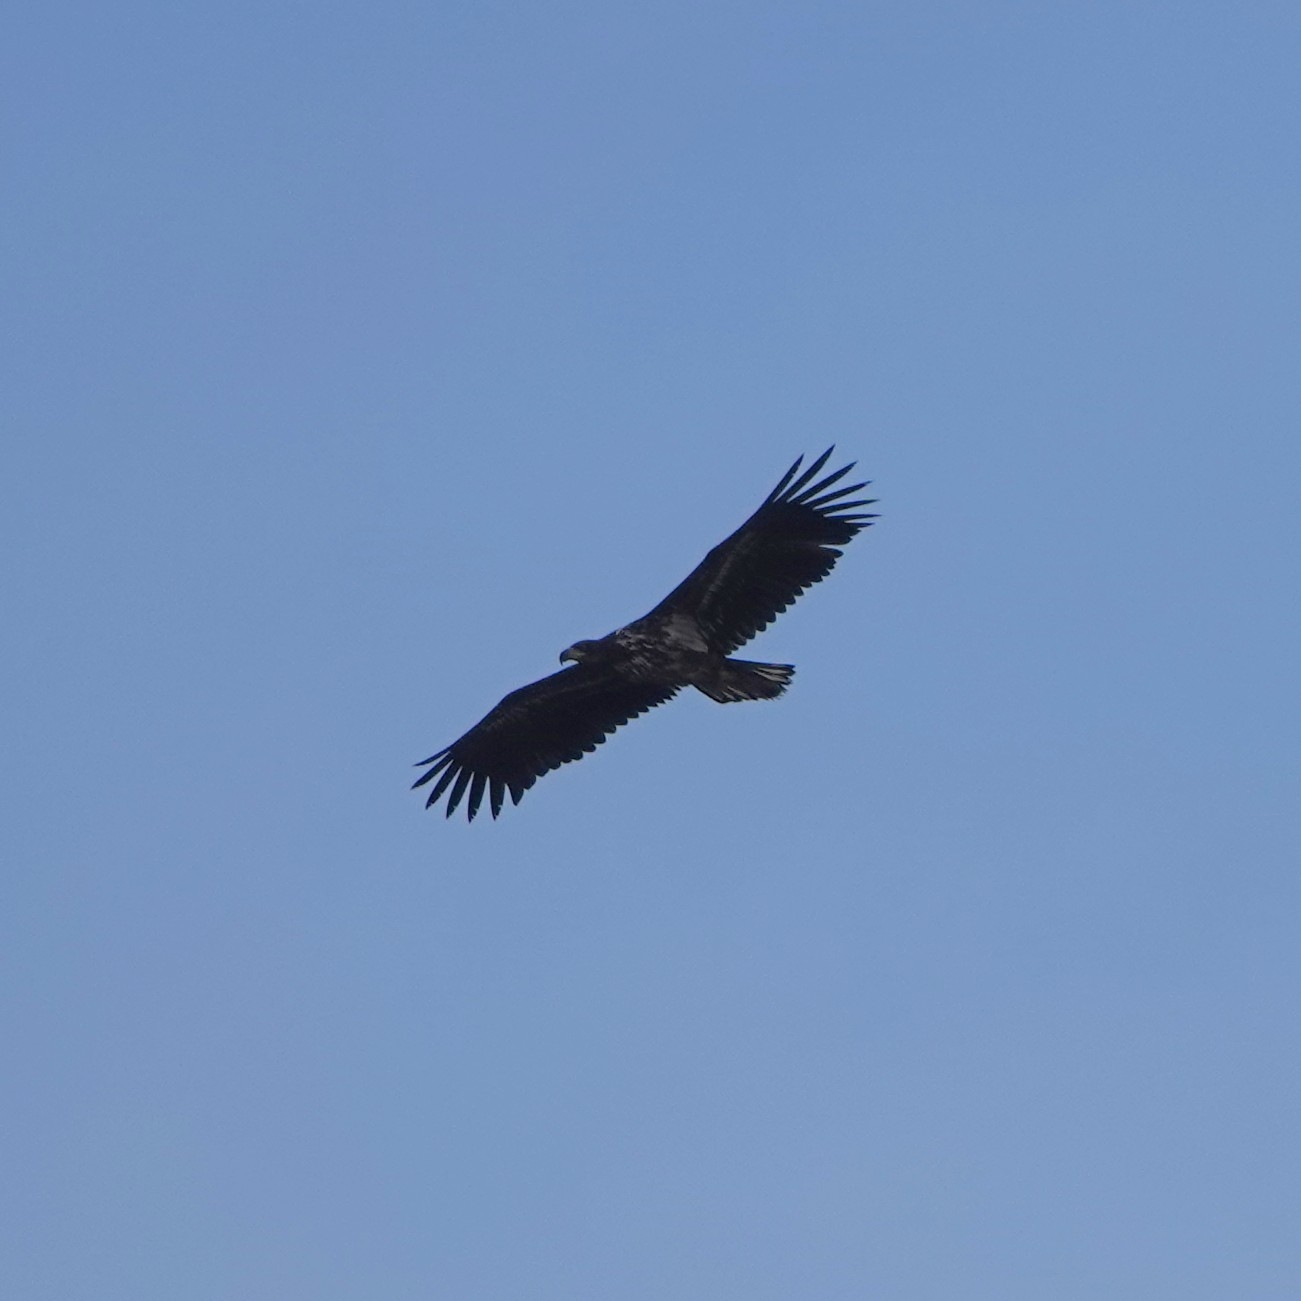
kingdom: Animalia
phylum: Chordata
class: Aves
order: Accipitriformes
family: Accipitridae
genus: Haliaeetus
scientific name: Haliaeetus albicilla
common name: White-tailed eagle
